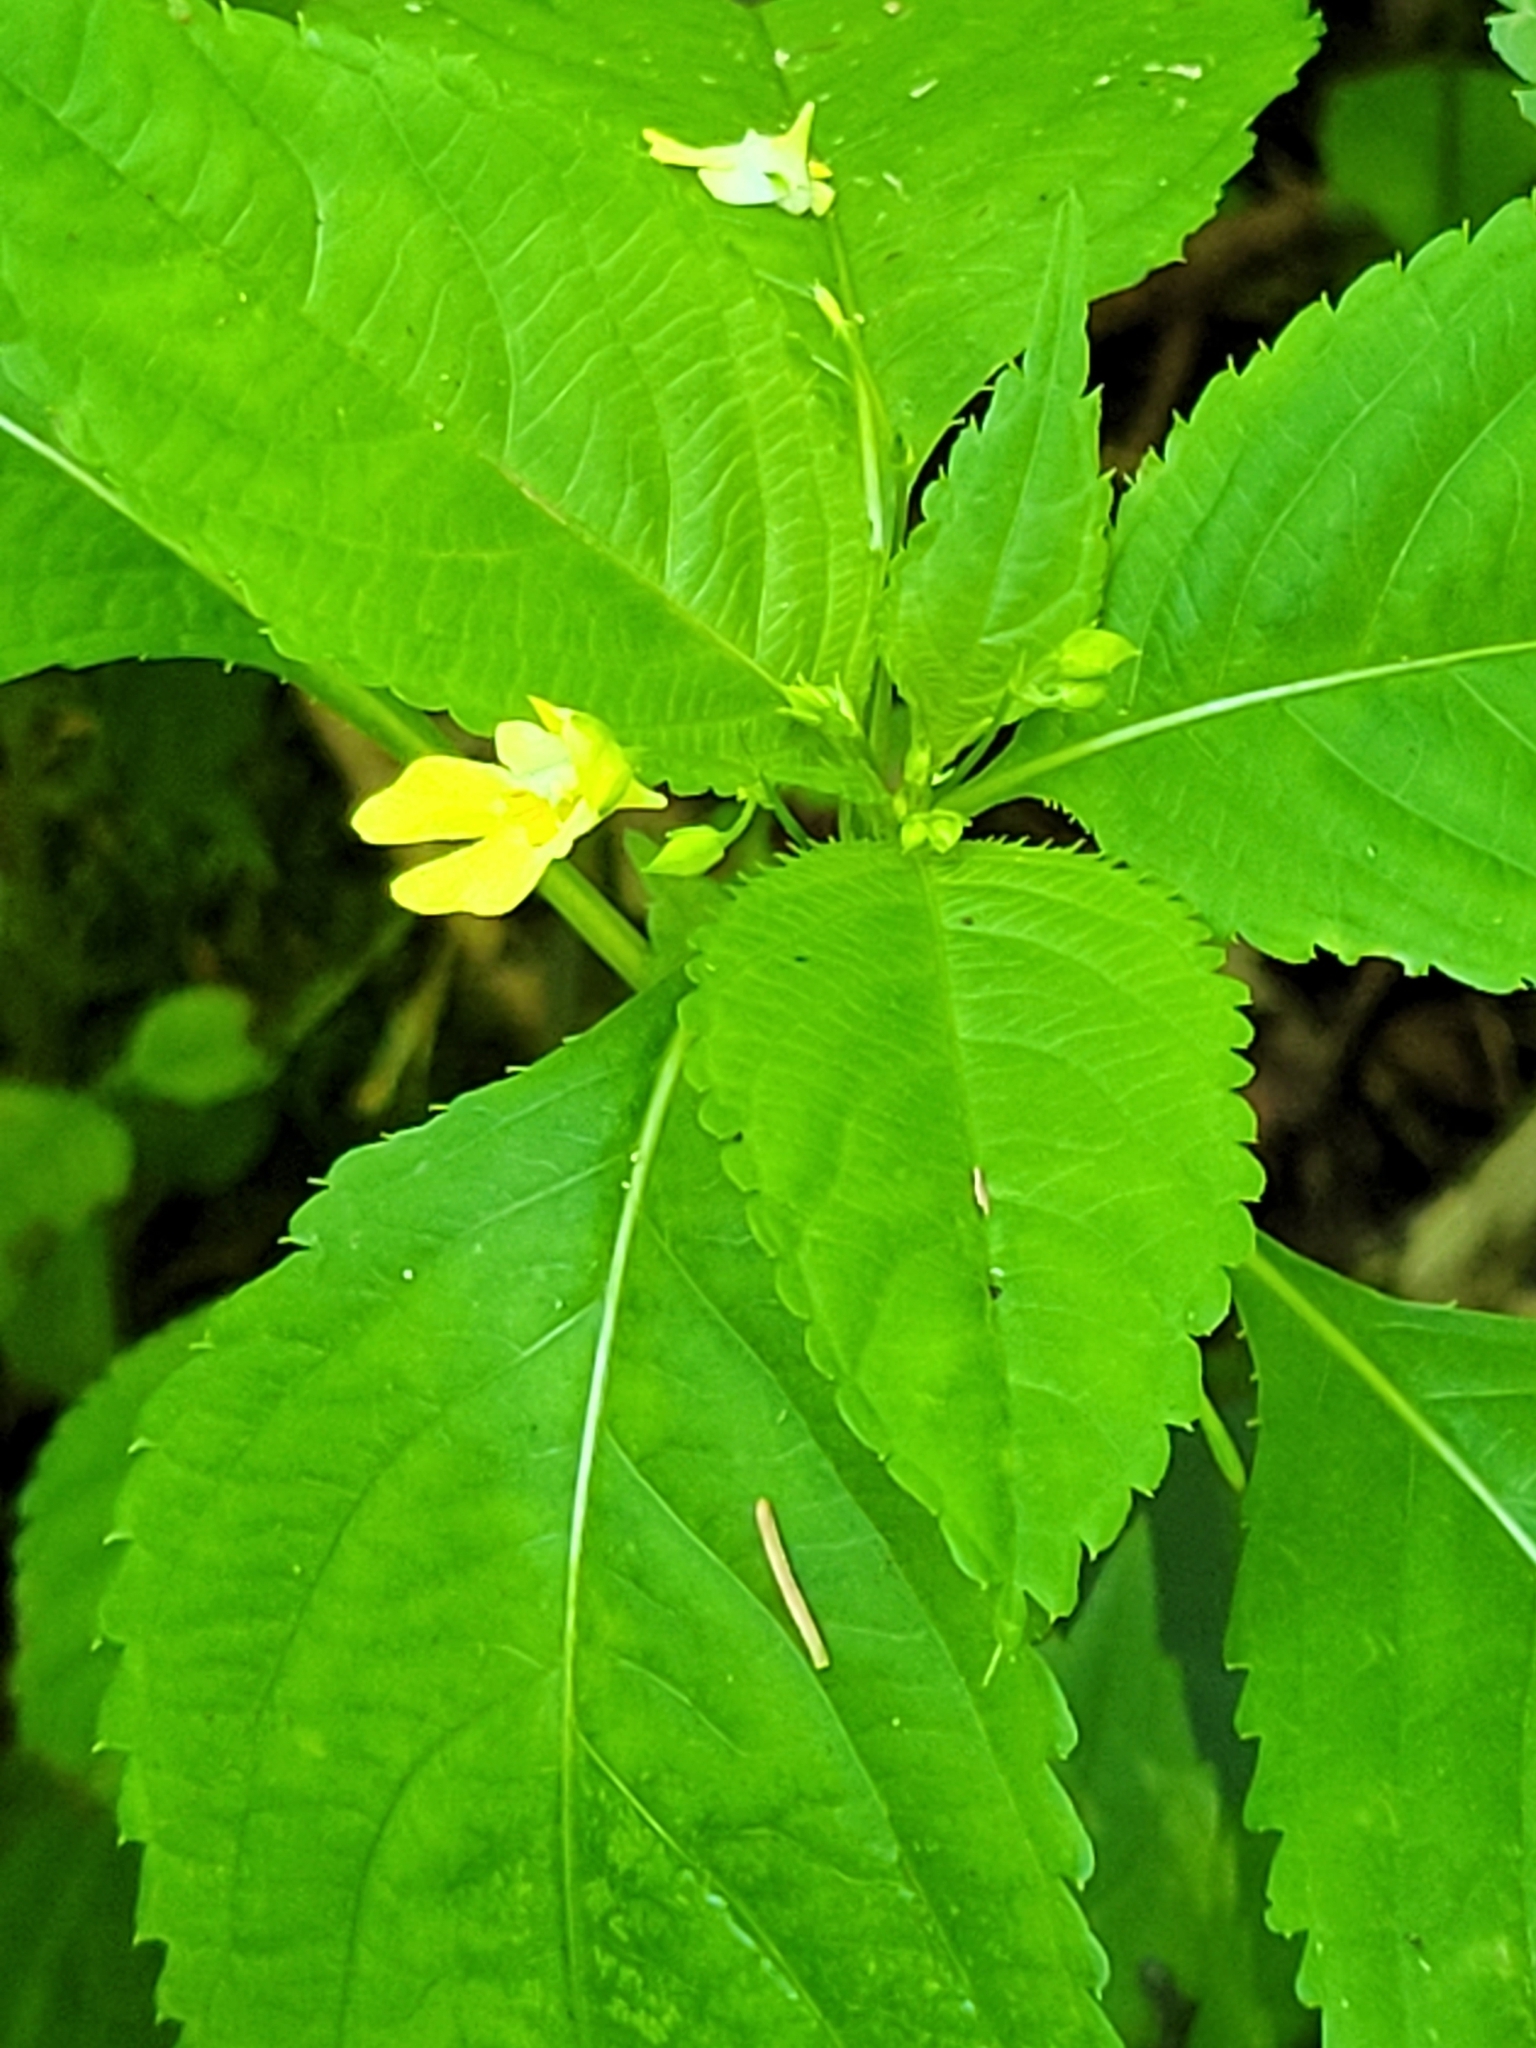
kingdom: Plantae
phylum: Tracheophyta
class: Magnoliopsida
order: Ericales
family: Balsaminaceae
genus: Impatiens
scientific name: Impatiens parviflora
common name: Small balsam
